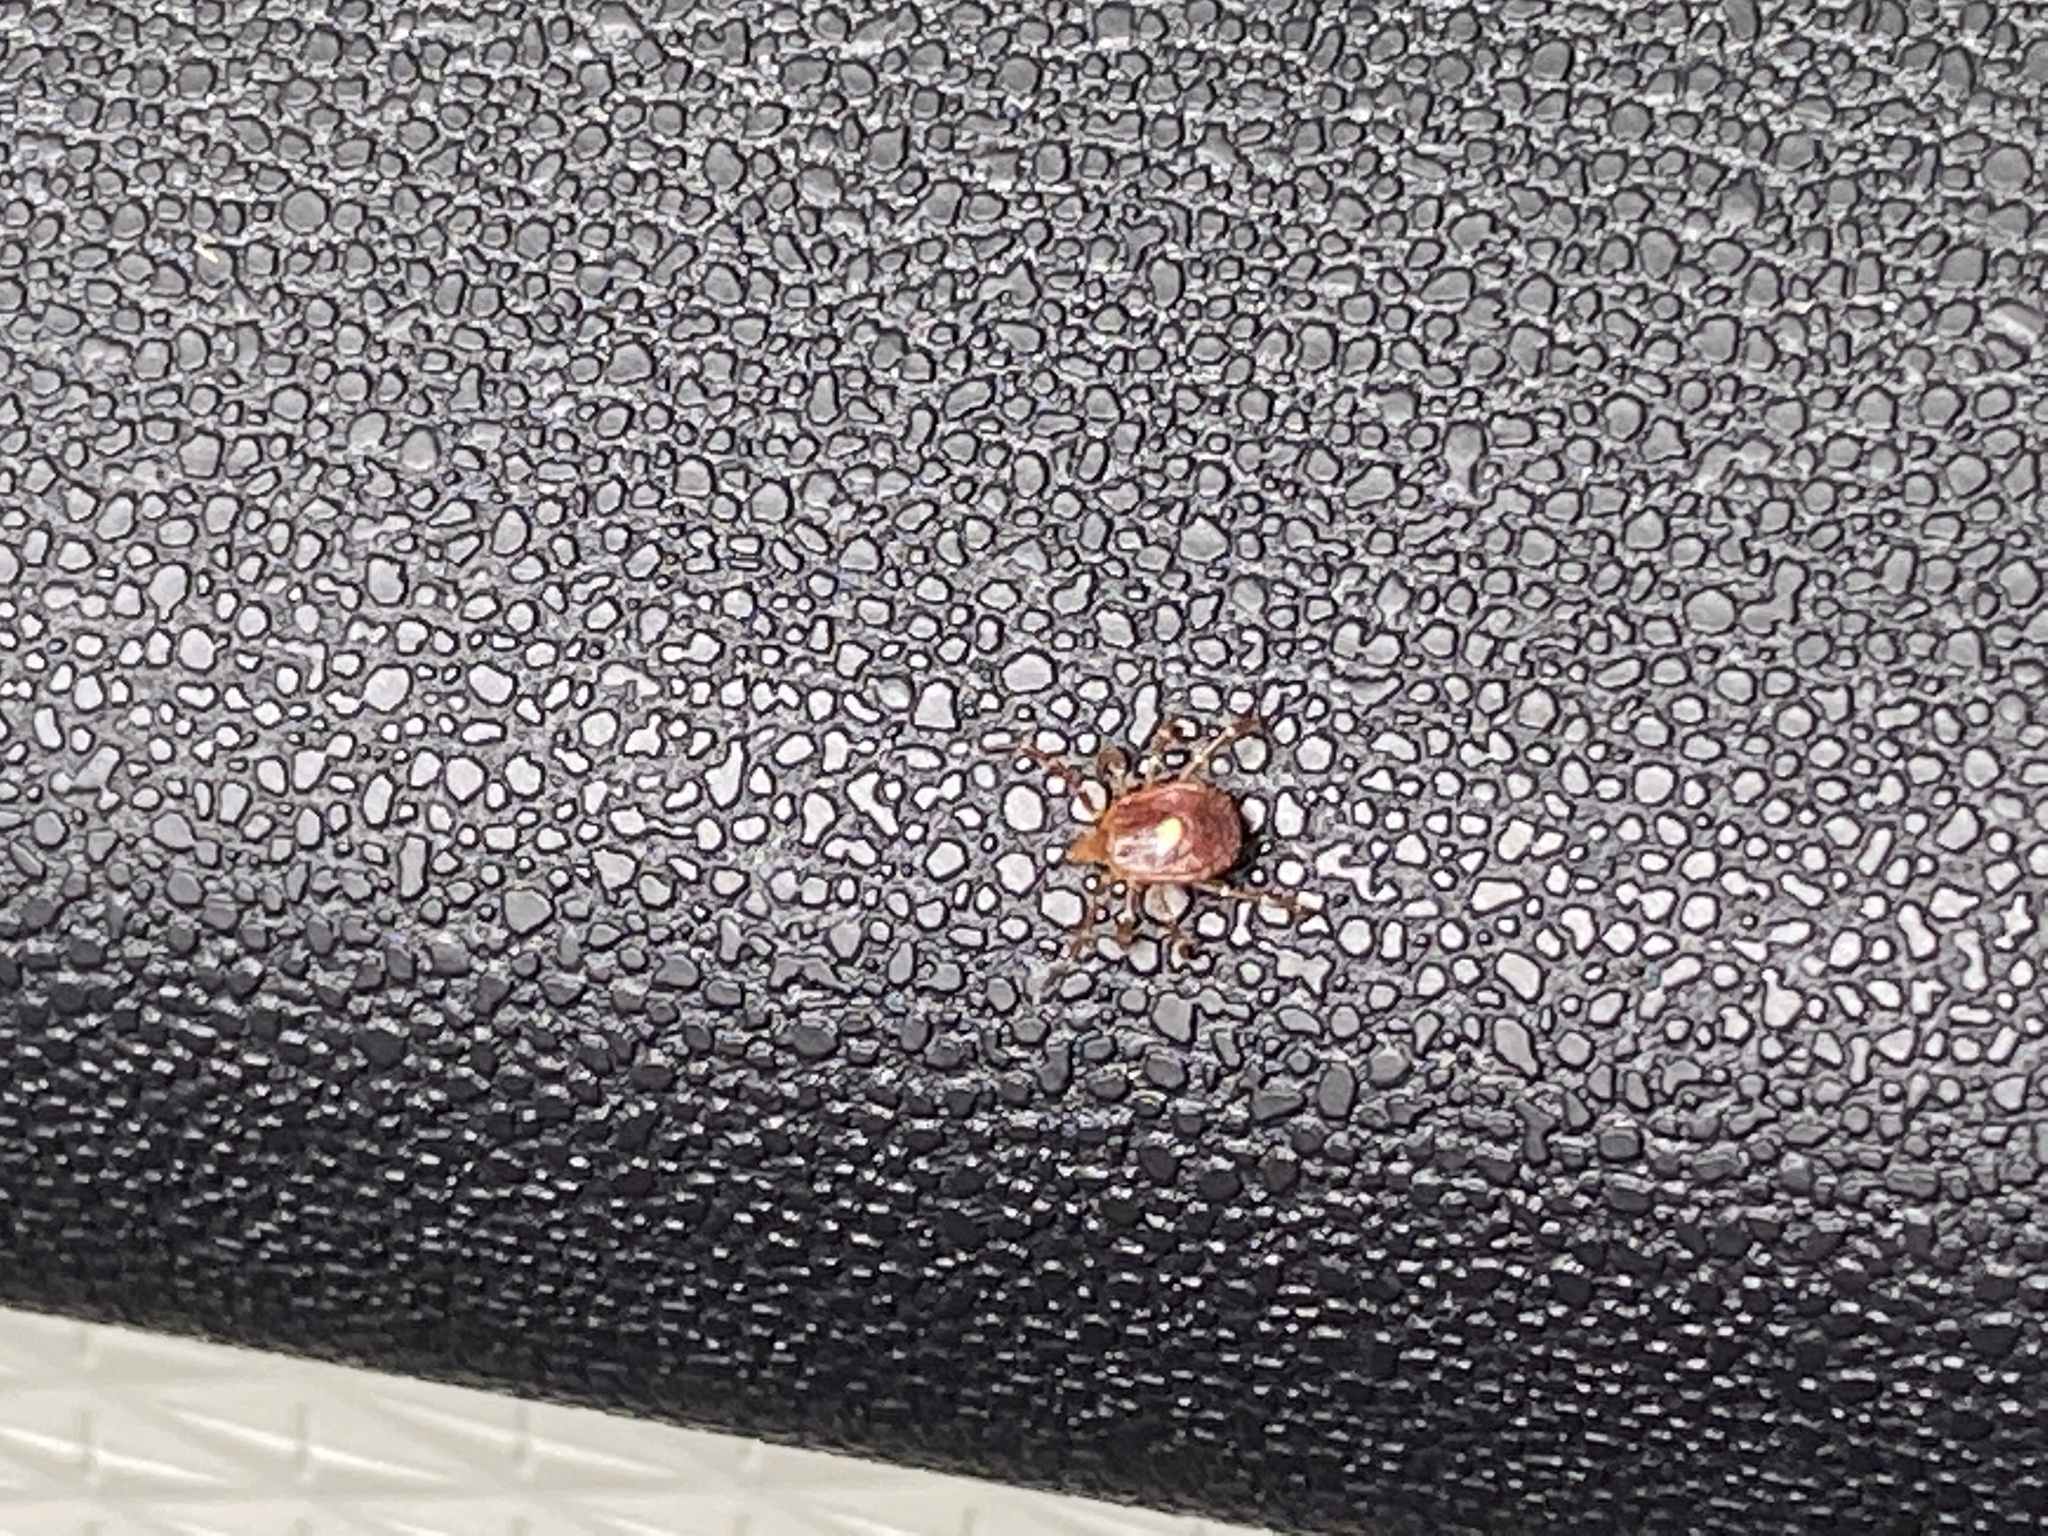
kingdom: Animalia
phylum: Arthropoda
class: Arachnida
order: Ixodida
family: Ixodidae
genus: Amblyomma
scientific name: Amblyomma americanum
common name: Lone star tick
